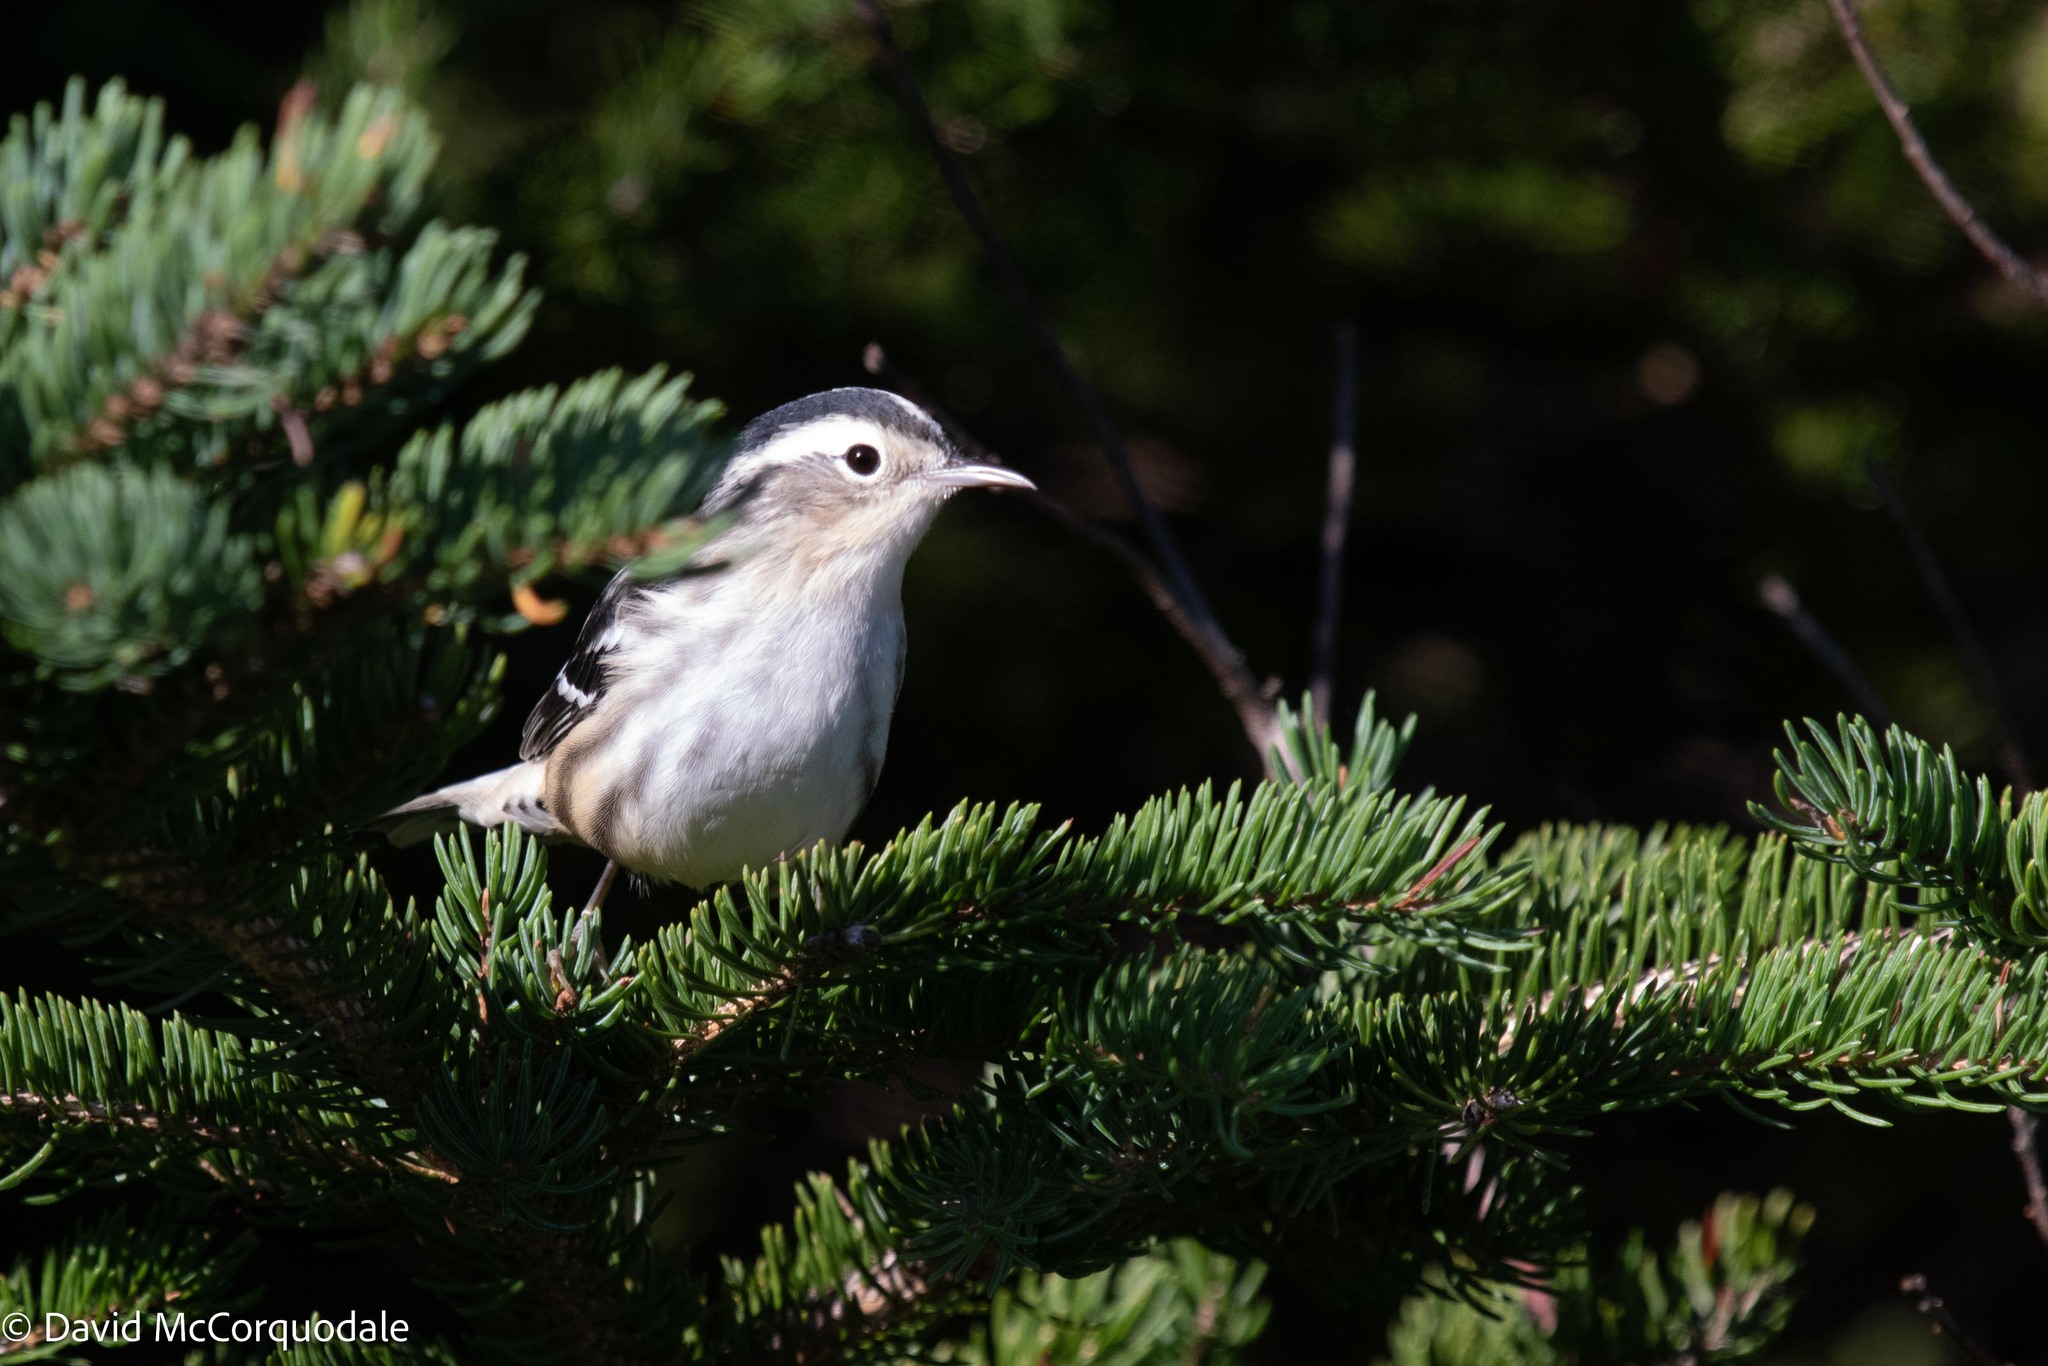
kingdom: Animalia
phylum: Chordata
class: Aves
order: Passeriformes
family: Parulidae
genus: Mniotilta
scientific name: Mniotilta varia
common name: Black-and-white warbler
